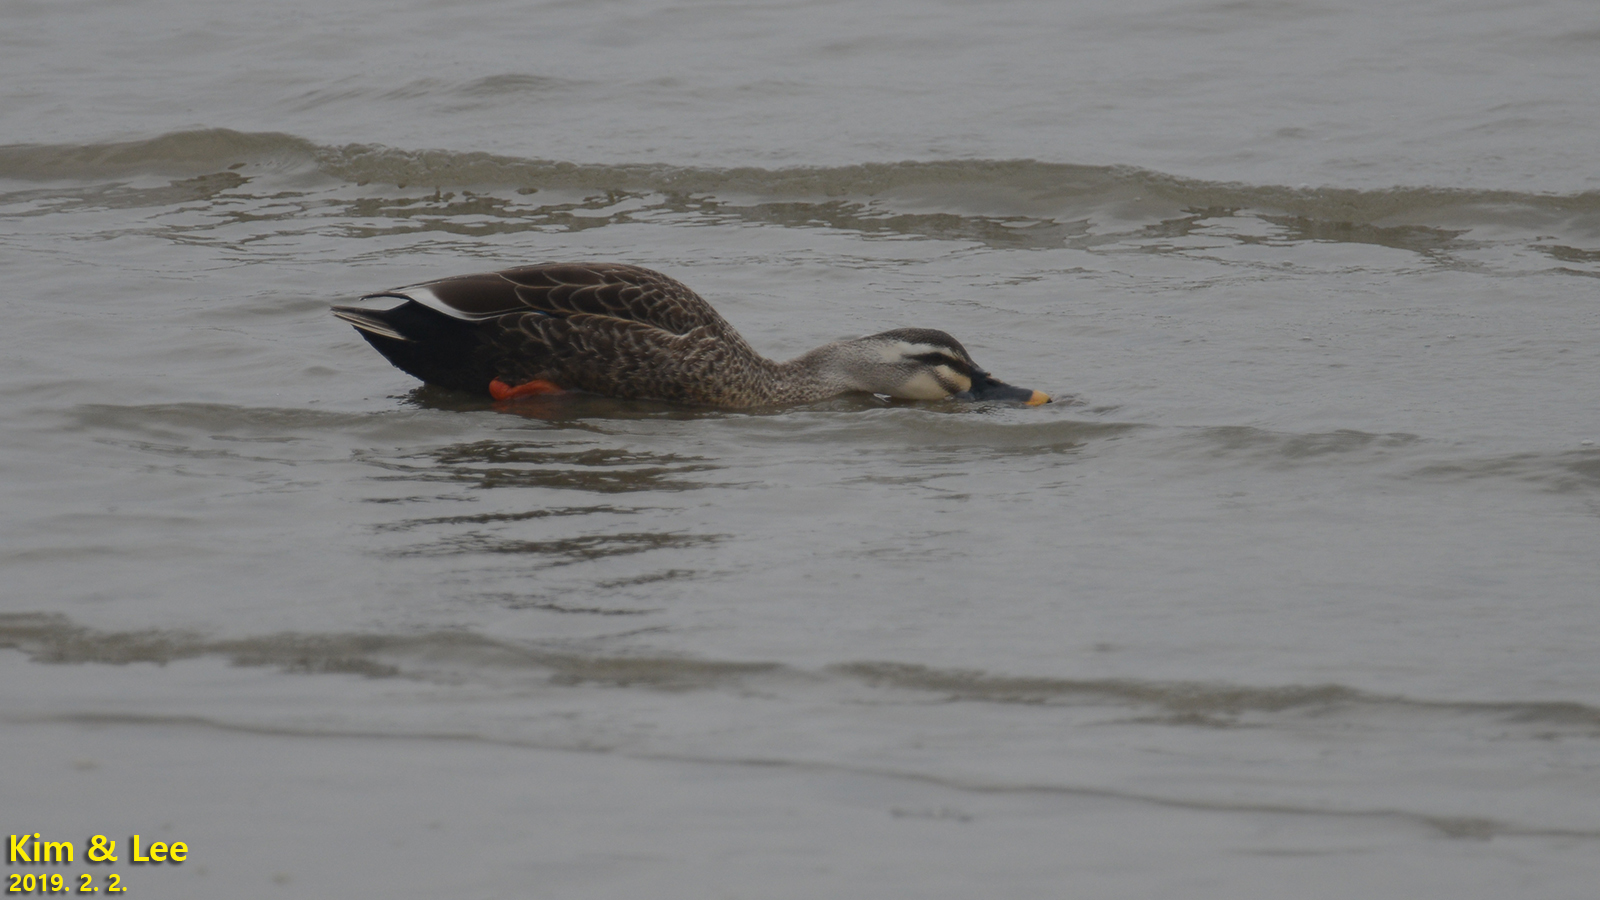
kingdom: Animalia
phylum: Chordata
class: Aves
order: Anseriformes
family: Anatidae
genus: Anas
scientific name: Anas zonorhyncha
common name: Eastern spot-billed duck
